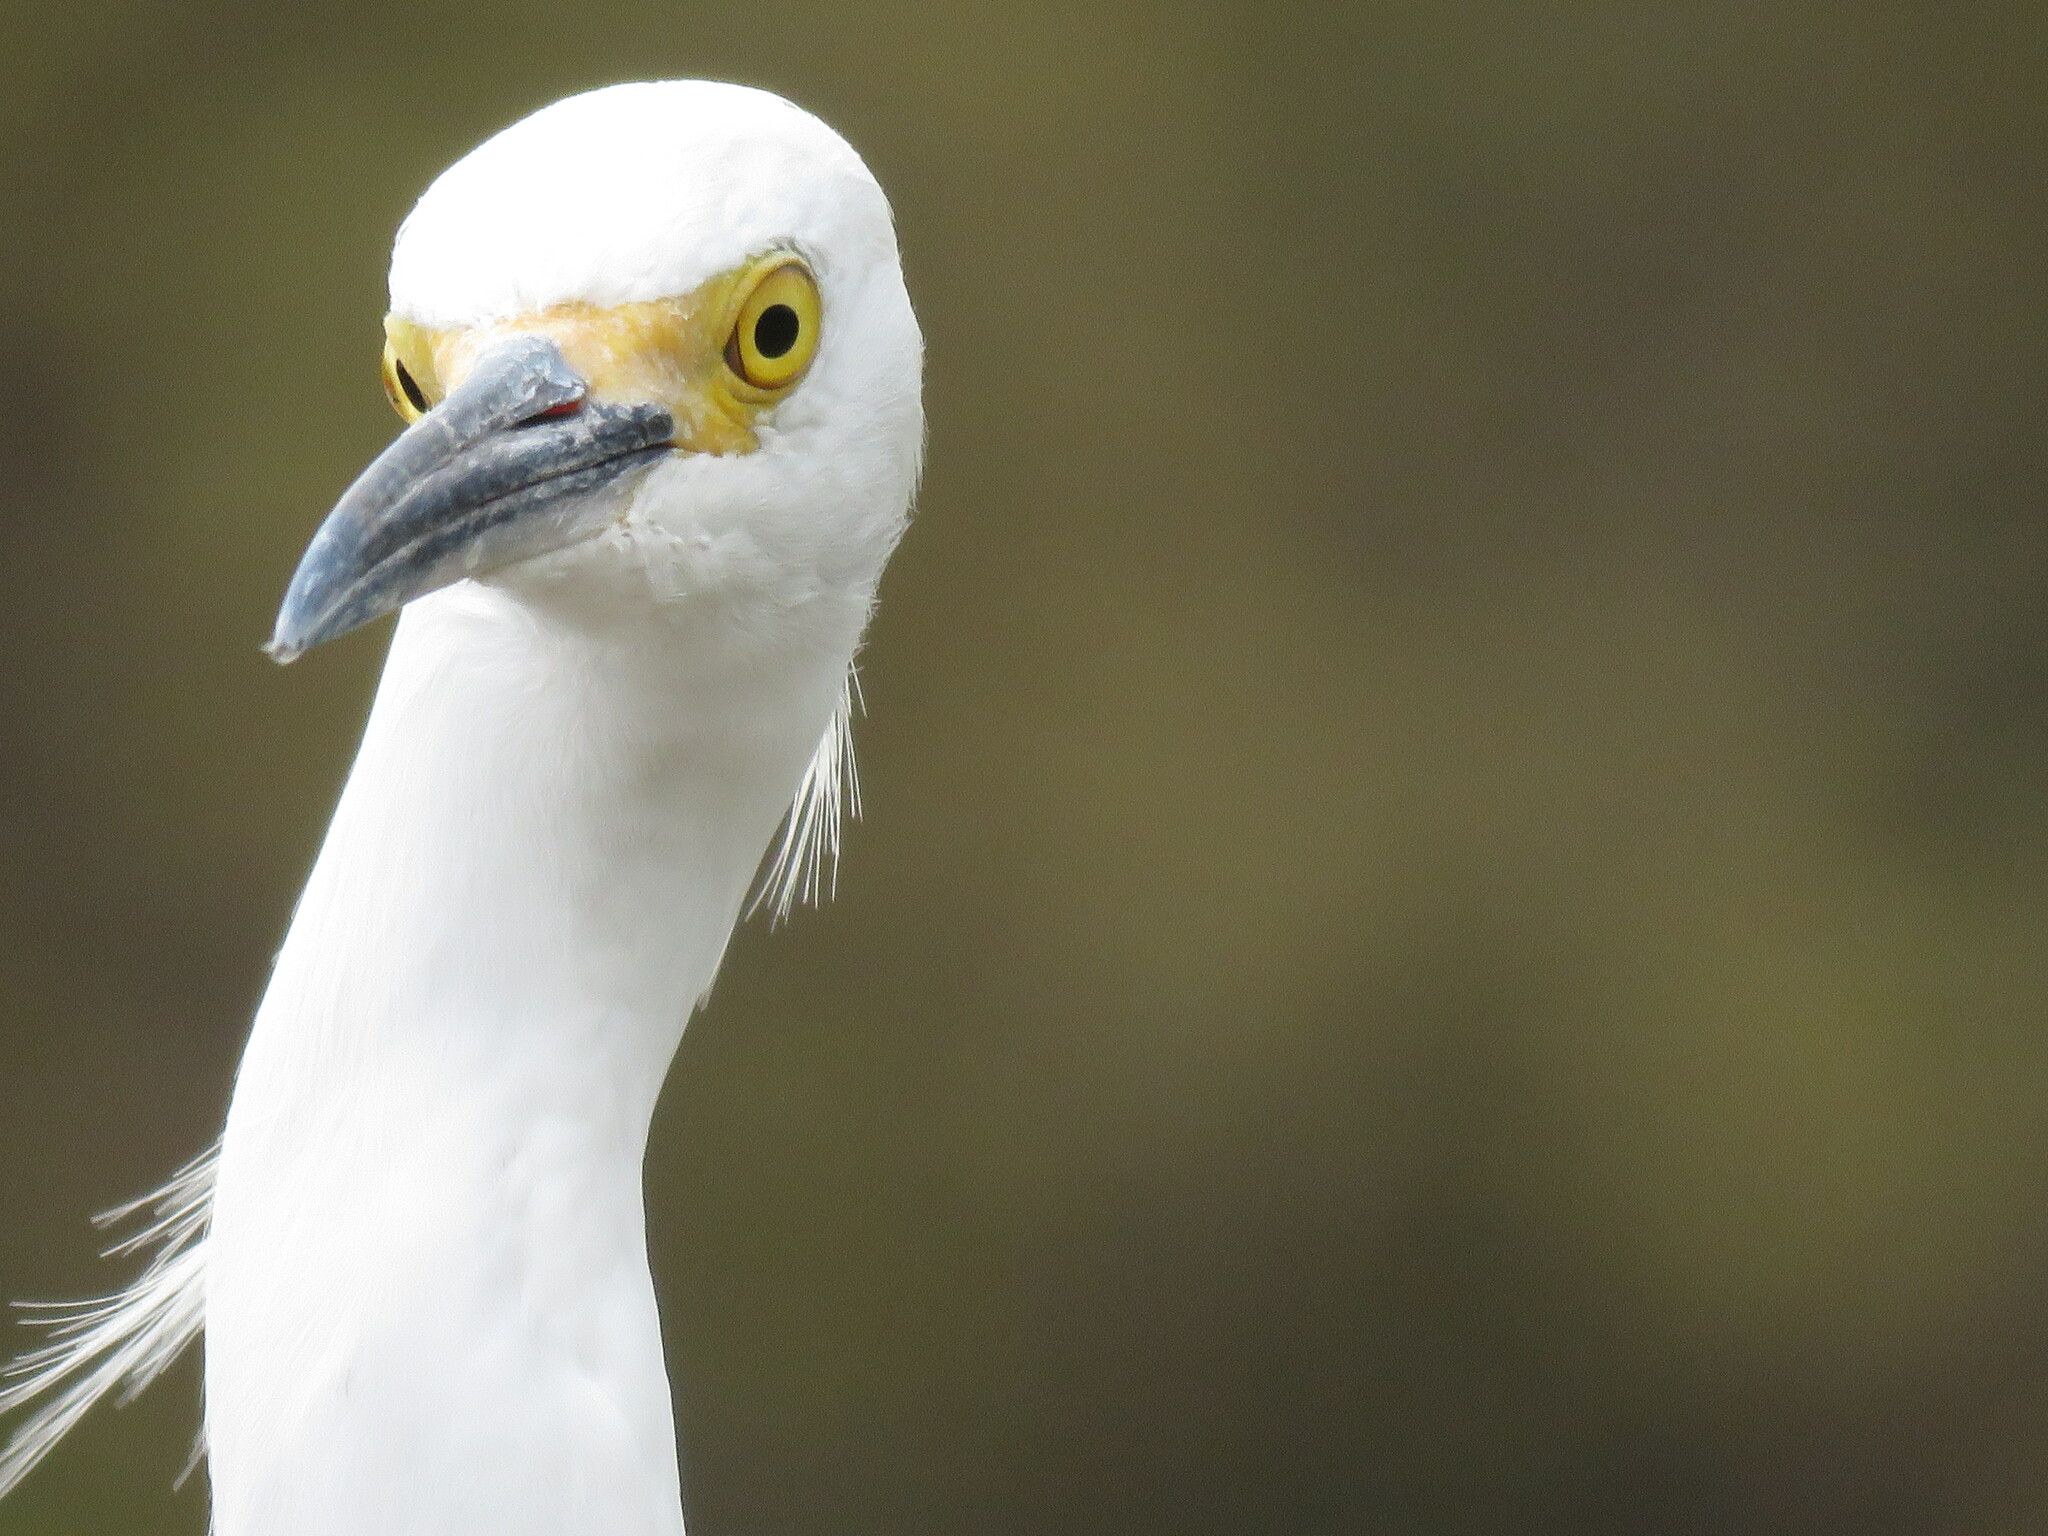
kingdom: Animalia
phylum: Chordata
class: Aves
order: Pelecaniformes
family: Ardeidae
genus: Egretta
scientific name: Egretta thula
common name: Snowy egret
